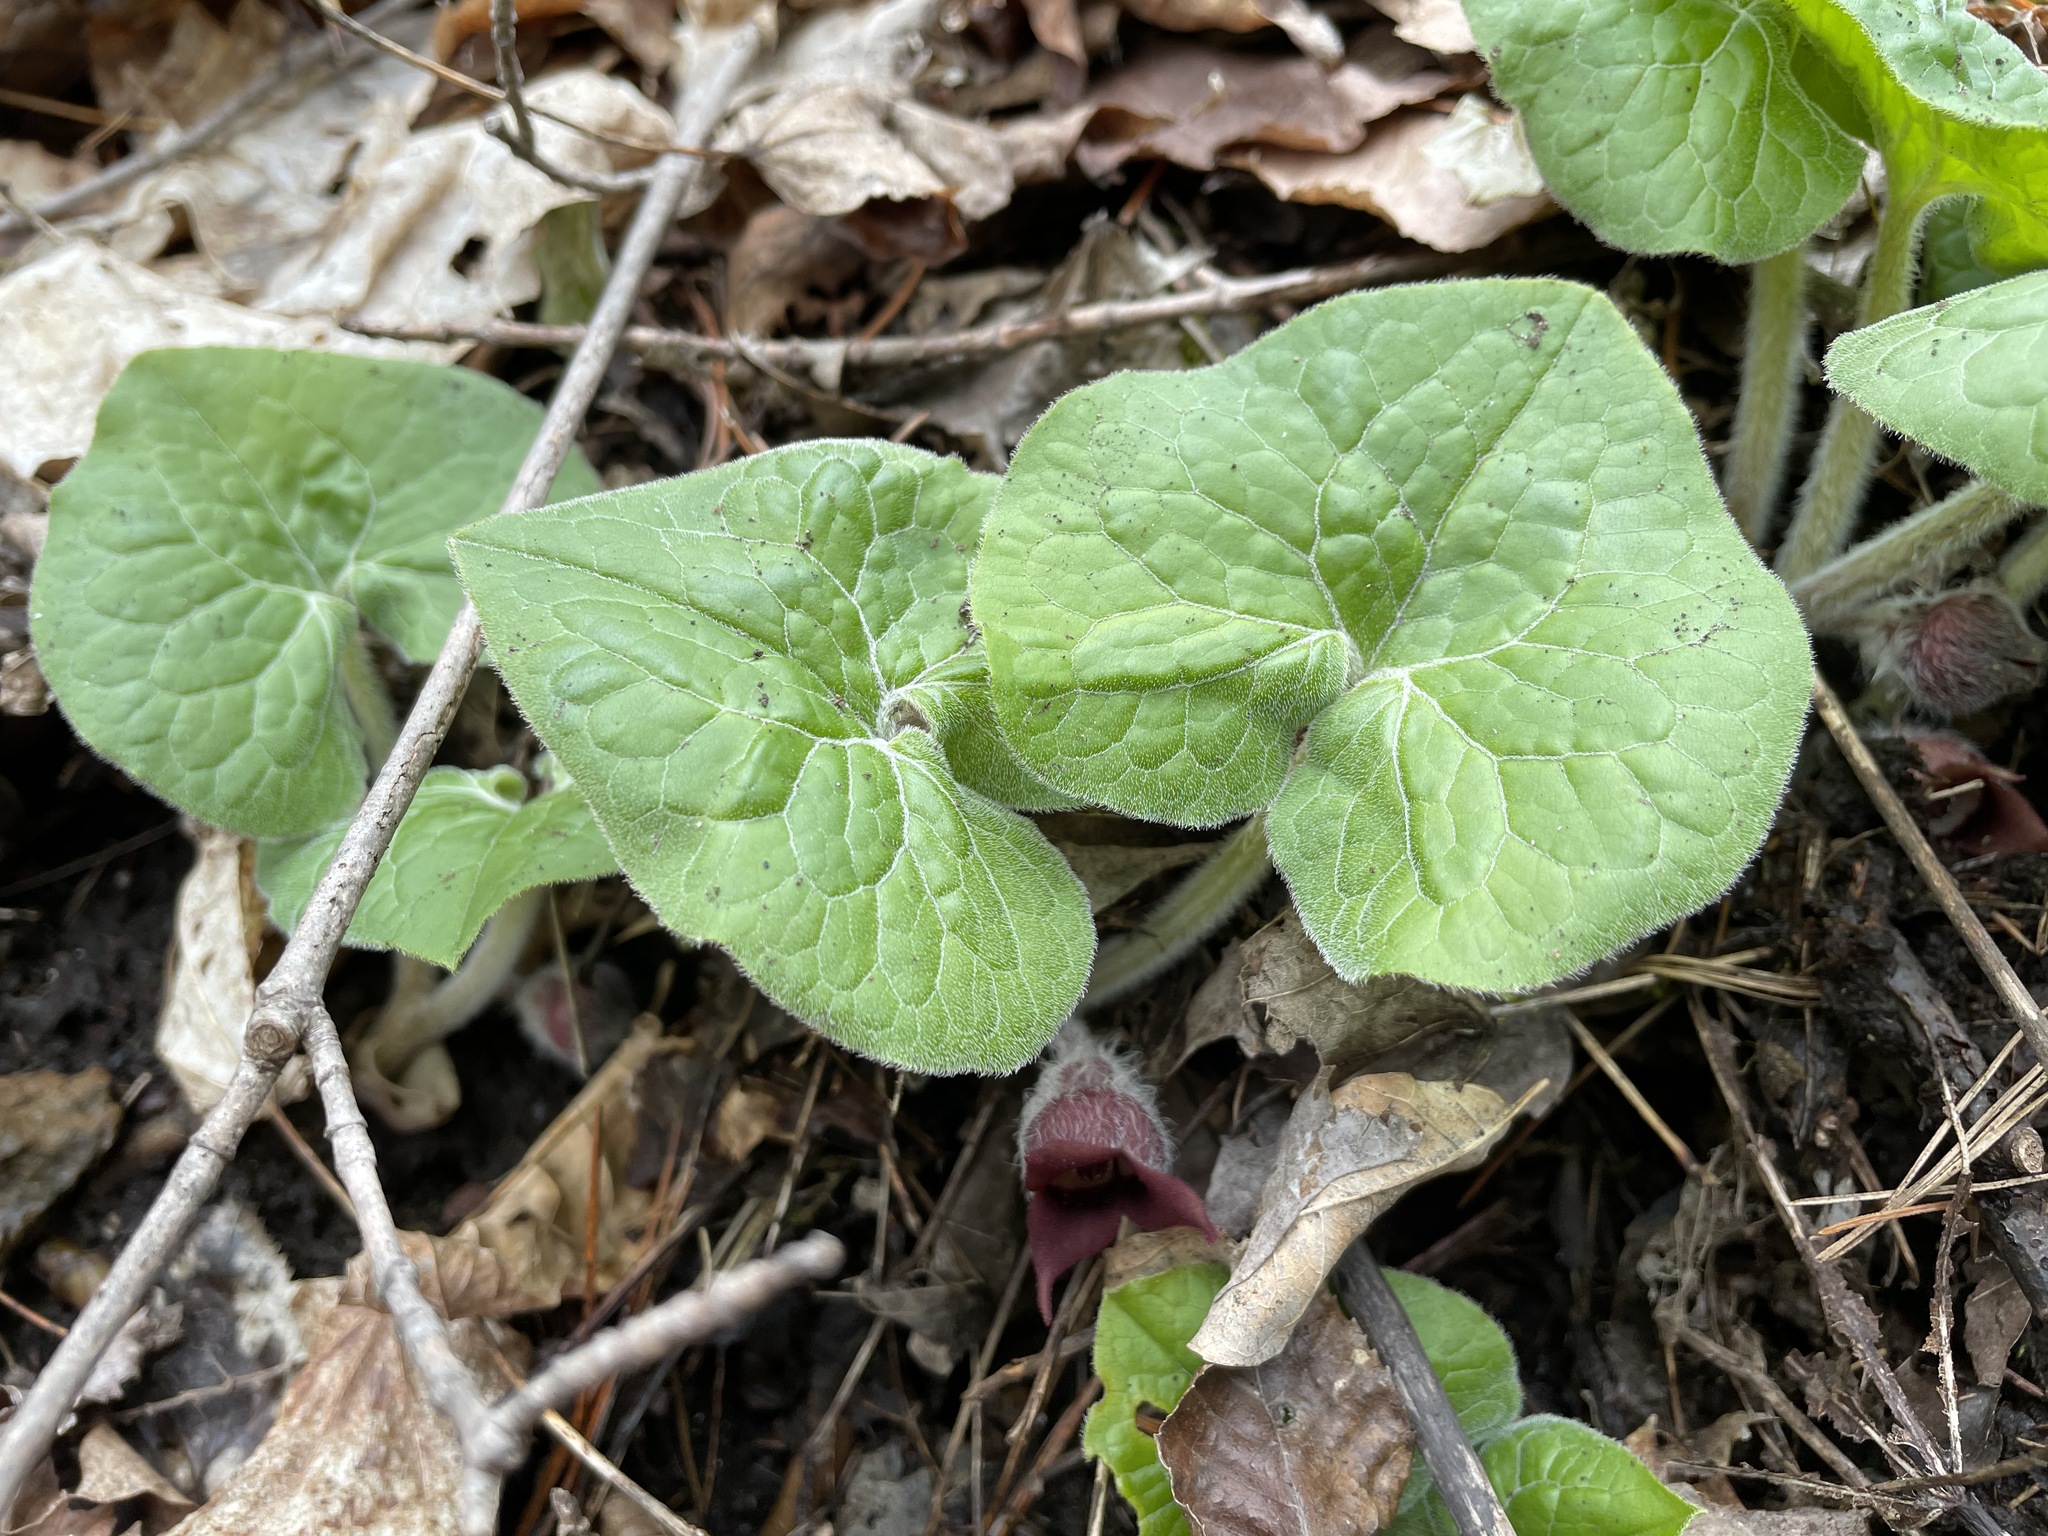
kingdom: Plantae
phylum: Tracheophyta
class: Magnoliopsida
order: Piperales
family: Aristolochiaceae
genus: Asarum
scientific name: Asarum canadense
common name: Wild ginger
